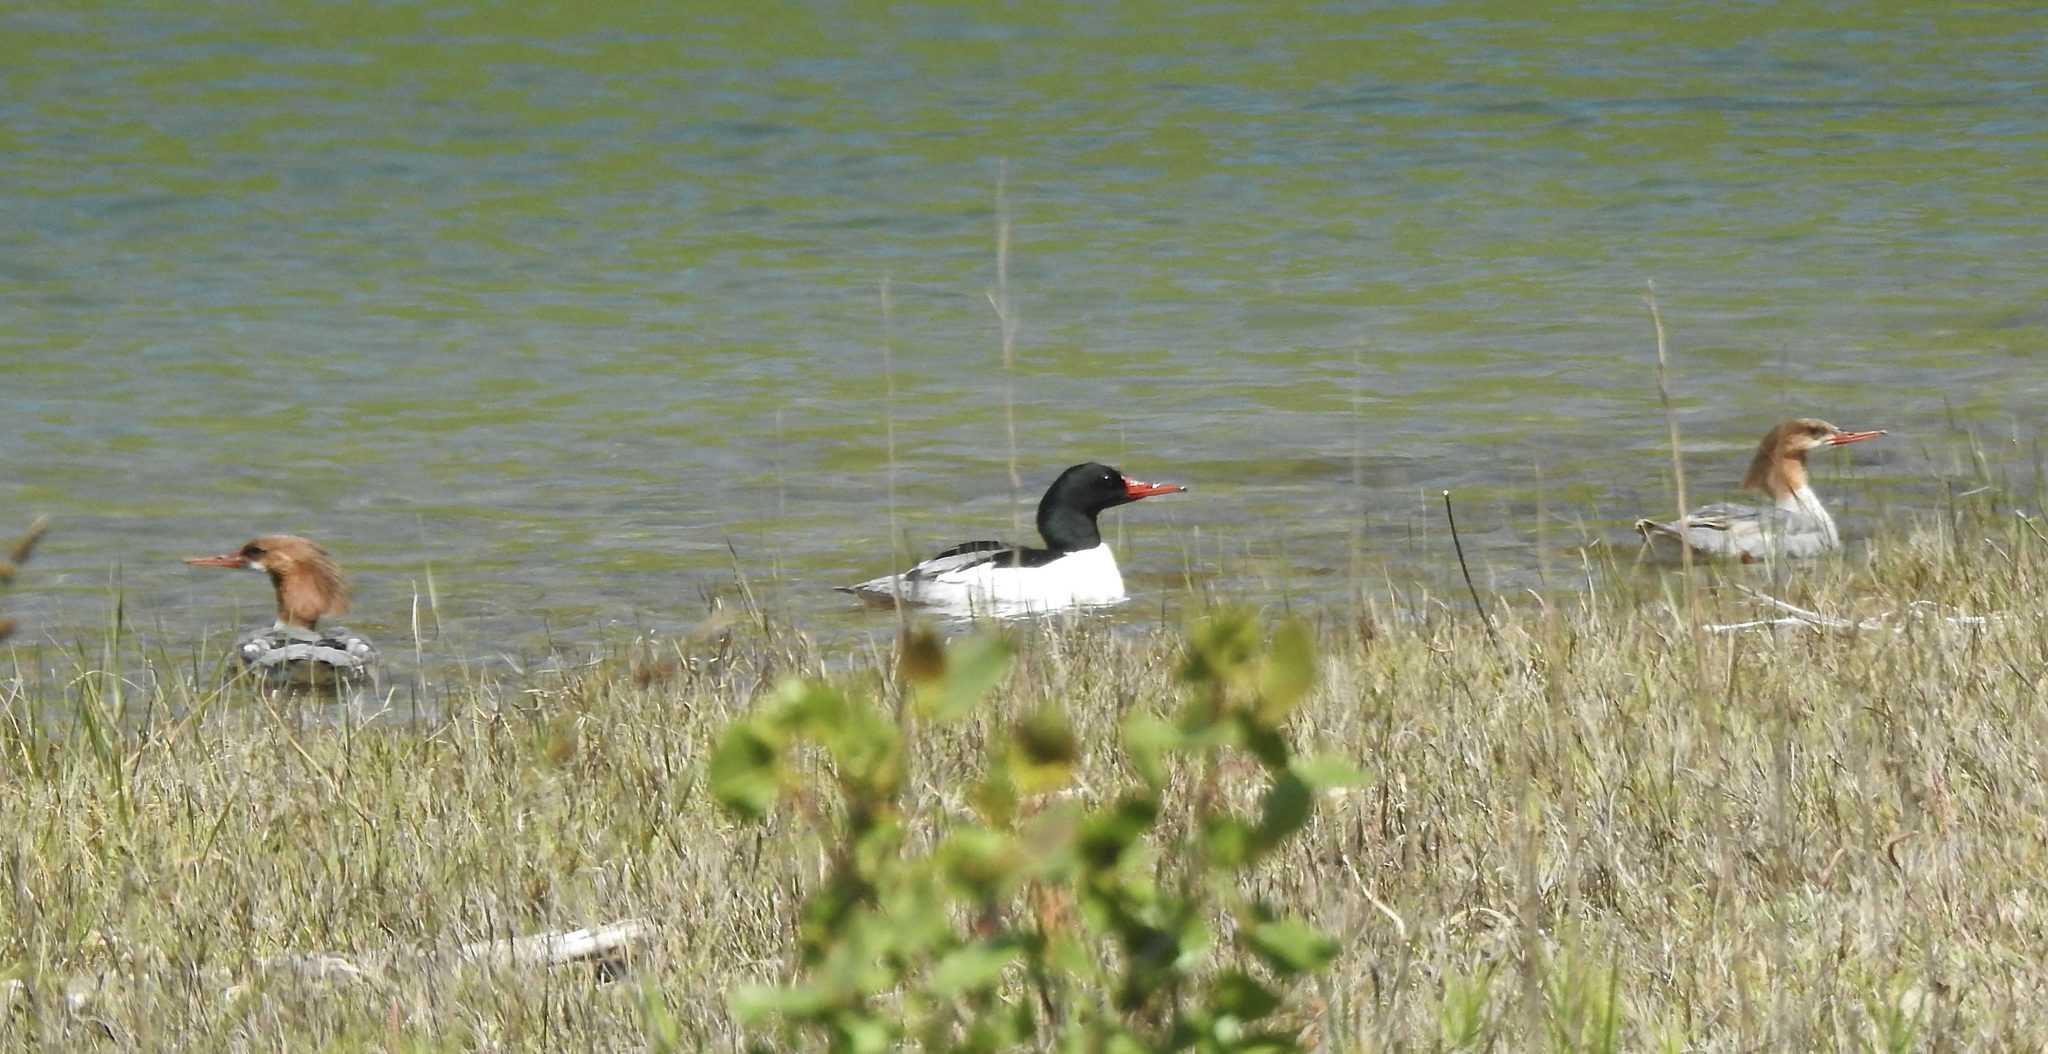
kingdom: Animalia
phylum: Chordata
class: Aves
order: Anseriformes
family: Anatidae
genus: Mergus
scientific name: Mergus merganser
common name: Common merganser
